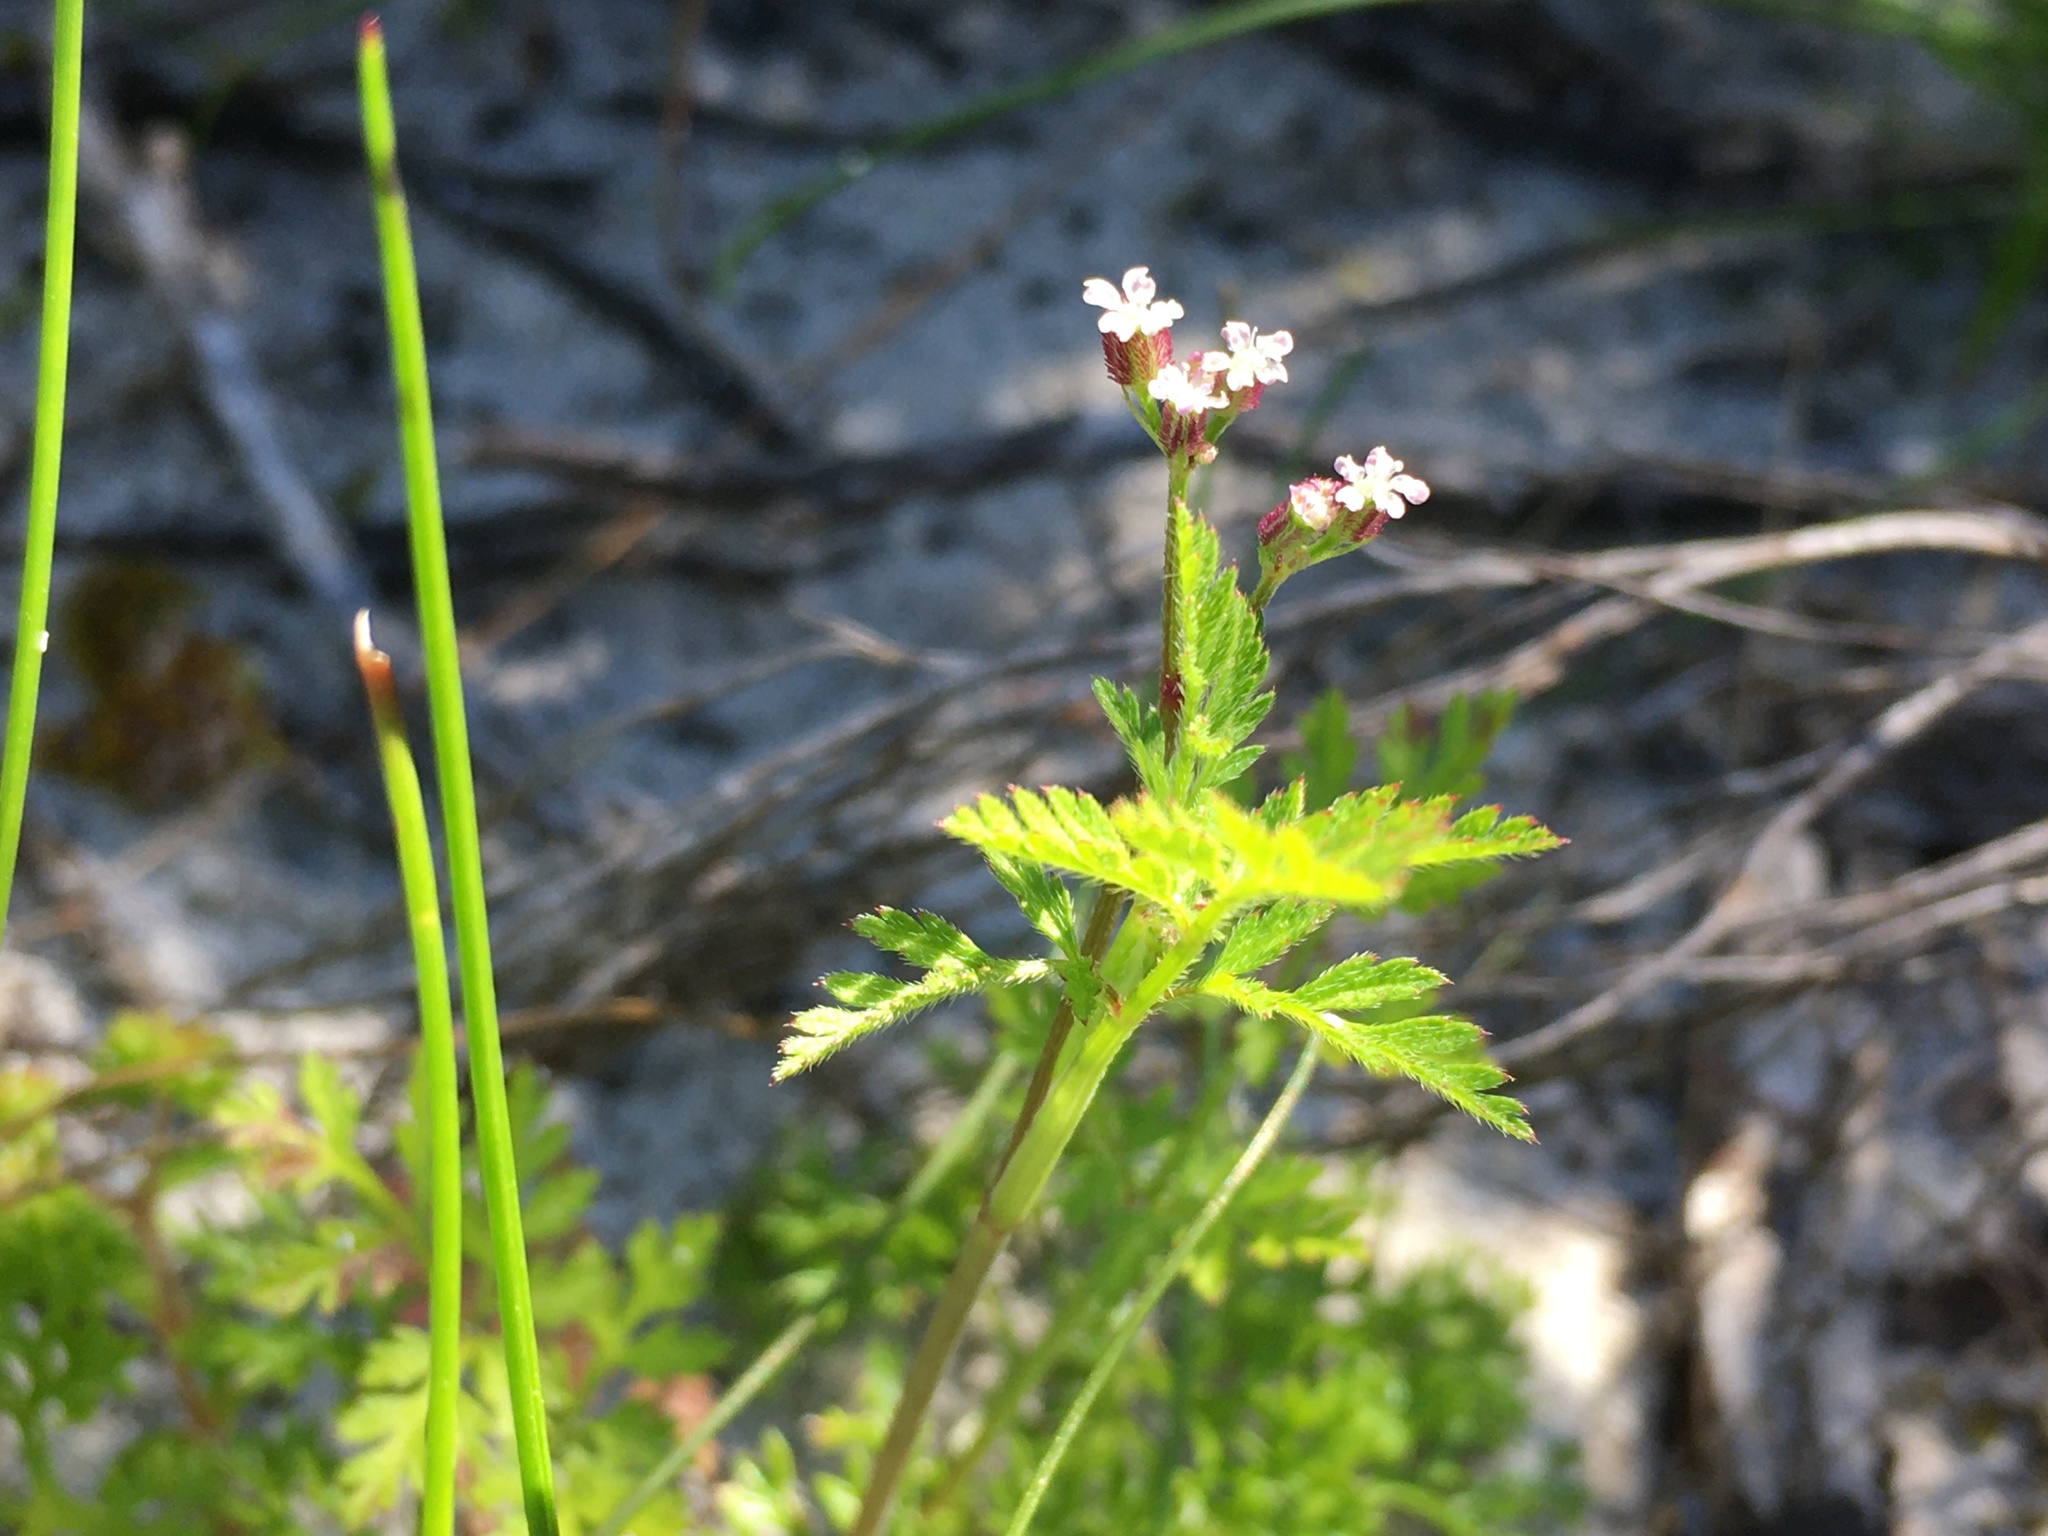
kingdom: Plantae
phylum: Tracheophyta
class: Magnoliopsida
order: Apiales
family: Apiaceae
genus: Torilis
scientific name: Torilis africana
